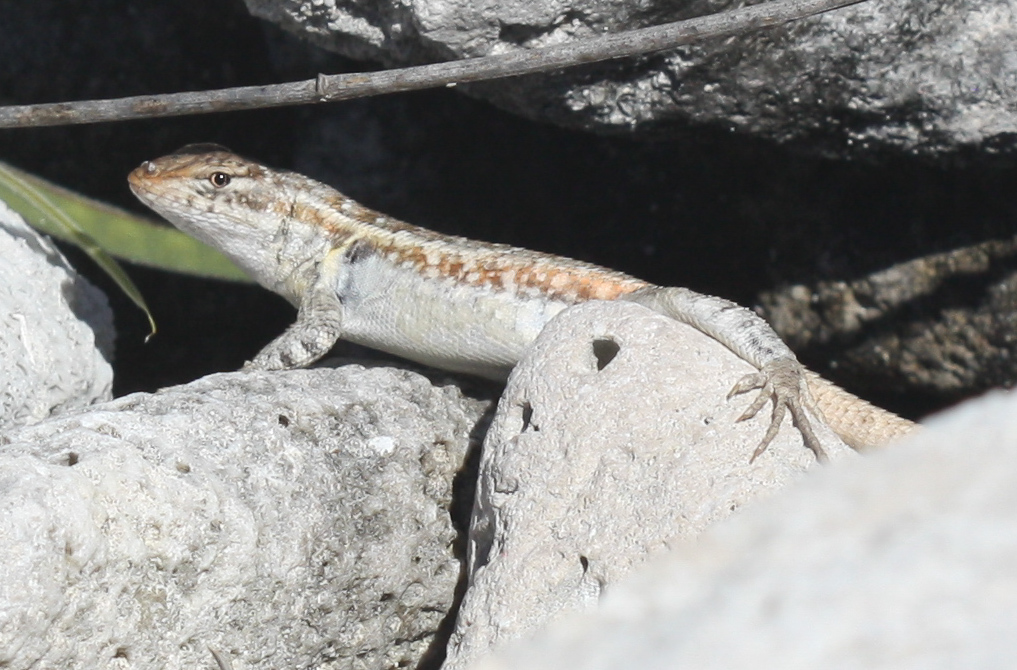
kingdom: Animalia
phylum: Chordata
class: Squamata
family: Phrynosomatidae
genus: Sceloporus
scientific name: Sceloporus cozumelae
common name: Cozumel spiny lizard
